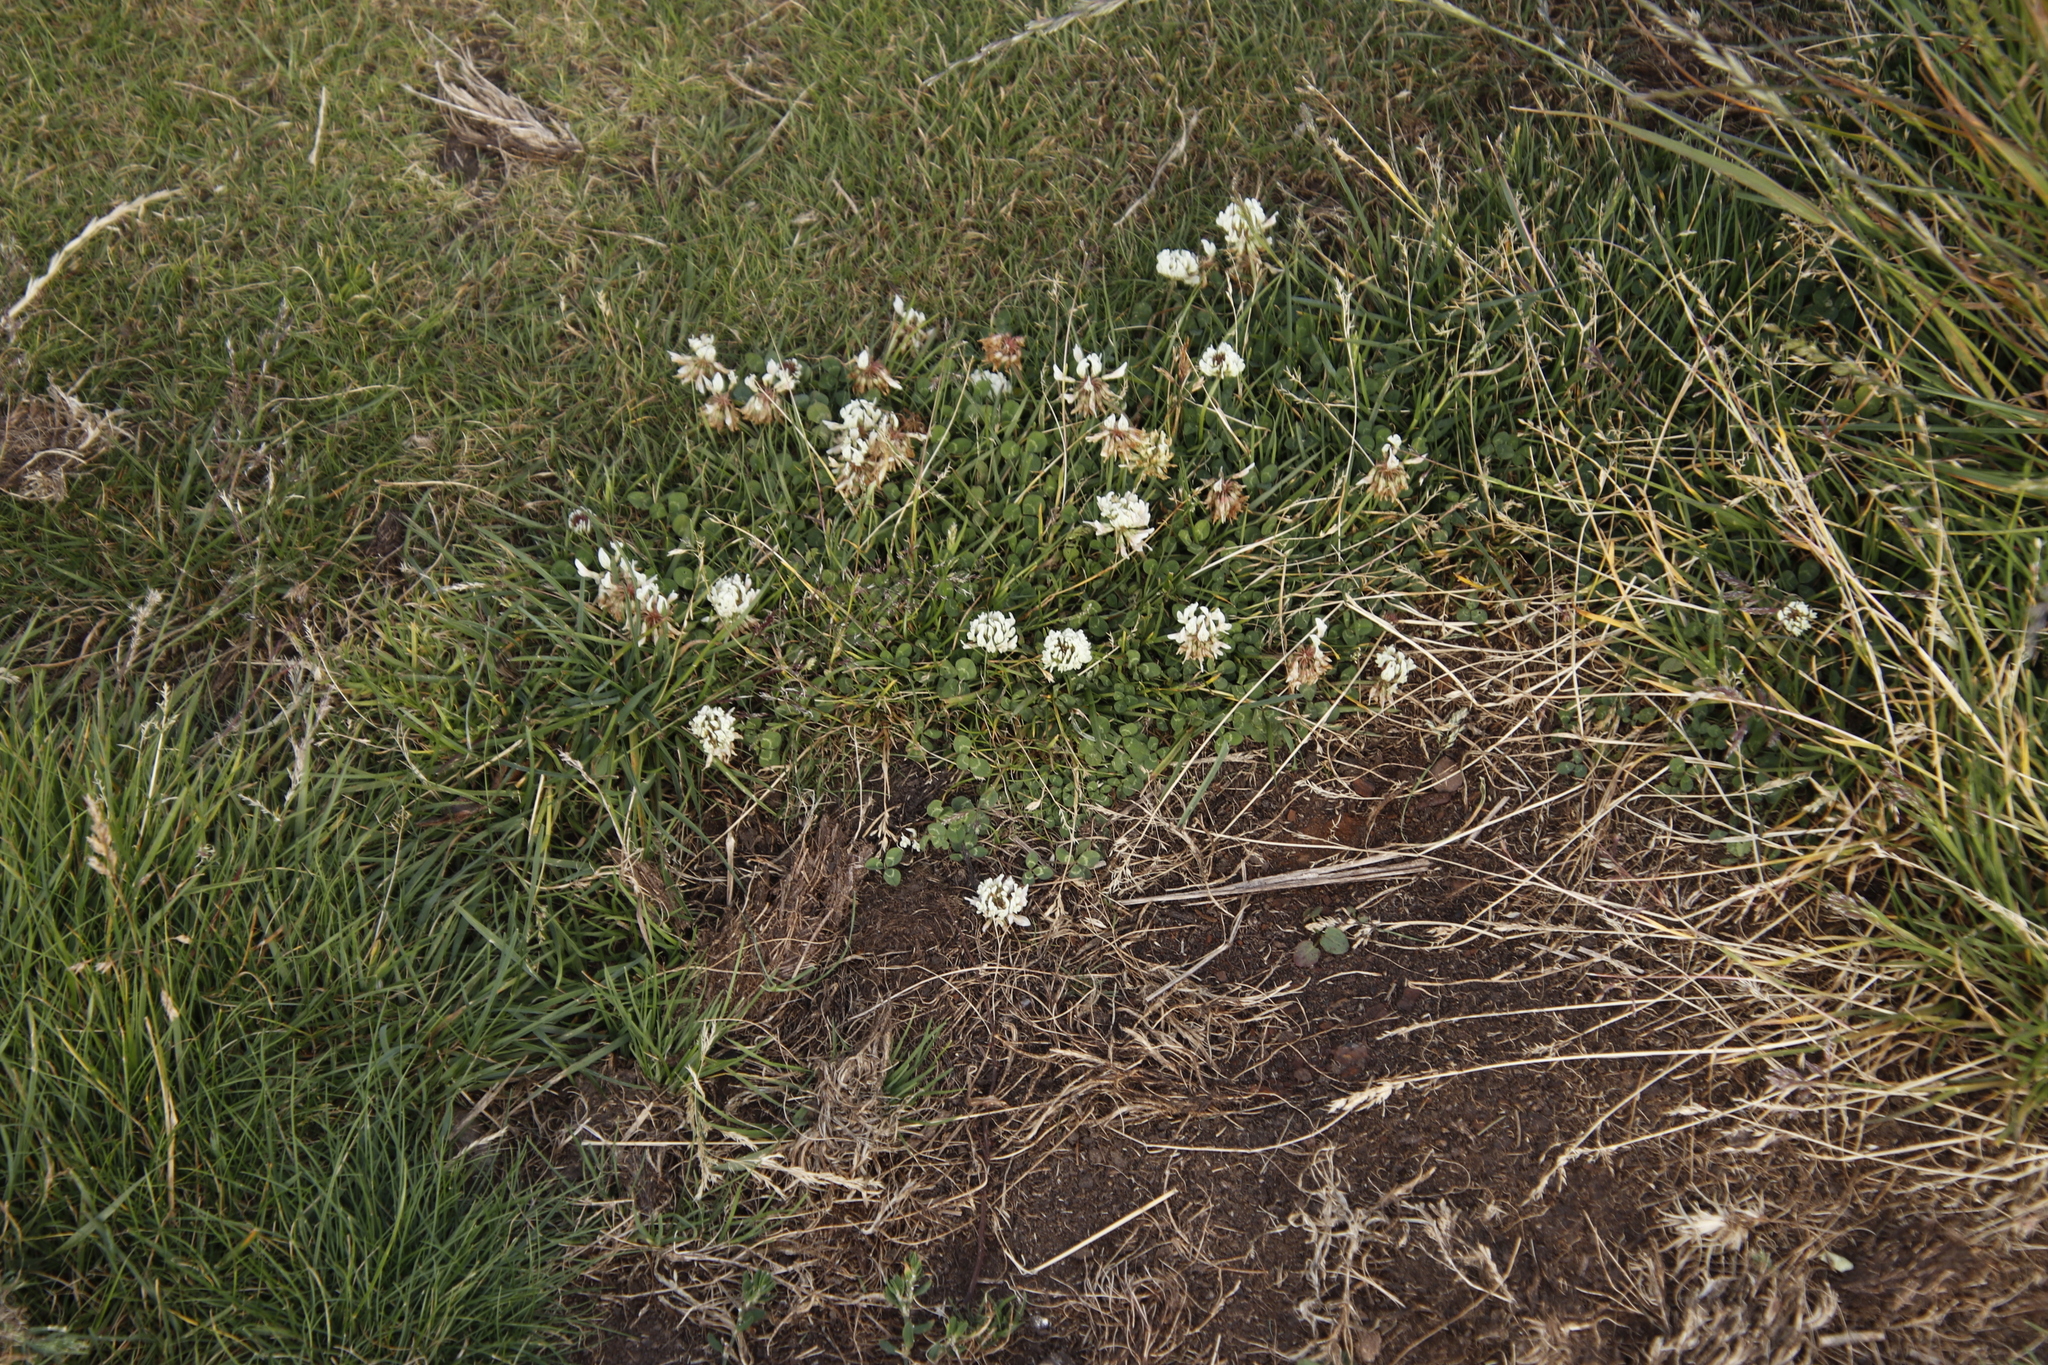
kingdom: Plantae
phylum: Tracheophyta
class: Magnoliopsida
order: Fabales
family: Fabaceae
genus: Trifolium
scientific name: Trifolium repens
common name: White clover
